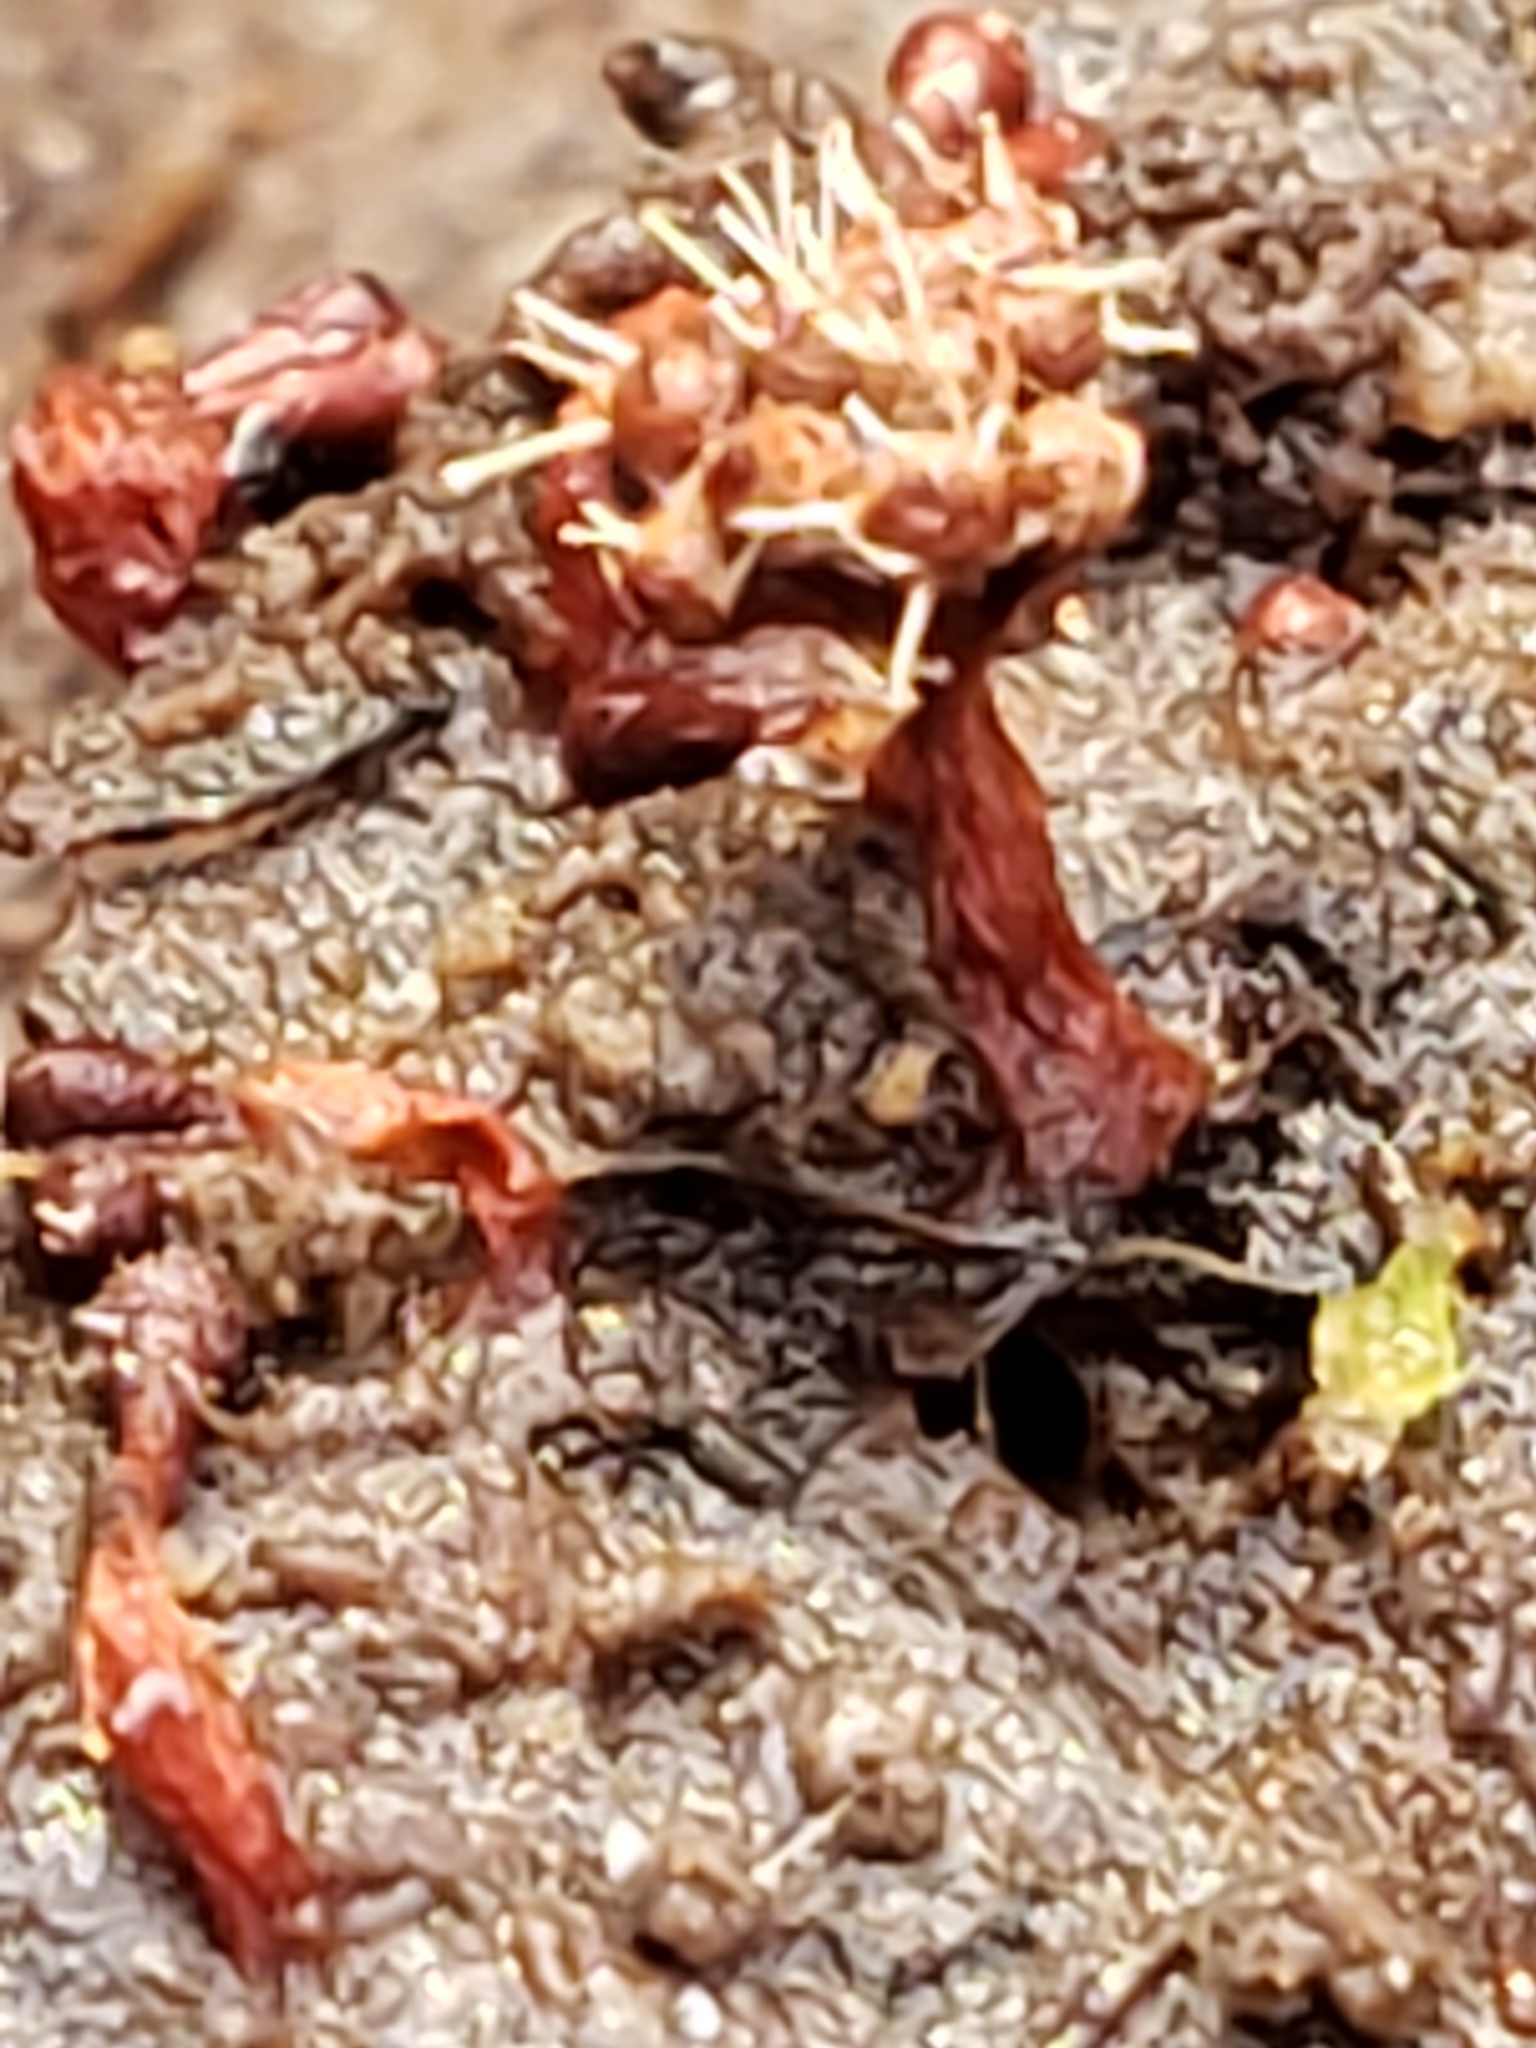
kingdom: Fungi
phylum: Ascomycota
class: Sordariomycetes
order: Hypocreales
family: Ophiocordycipitaceae
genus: Polycephalomyces
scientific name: Polycephalomyces tomentosus
